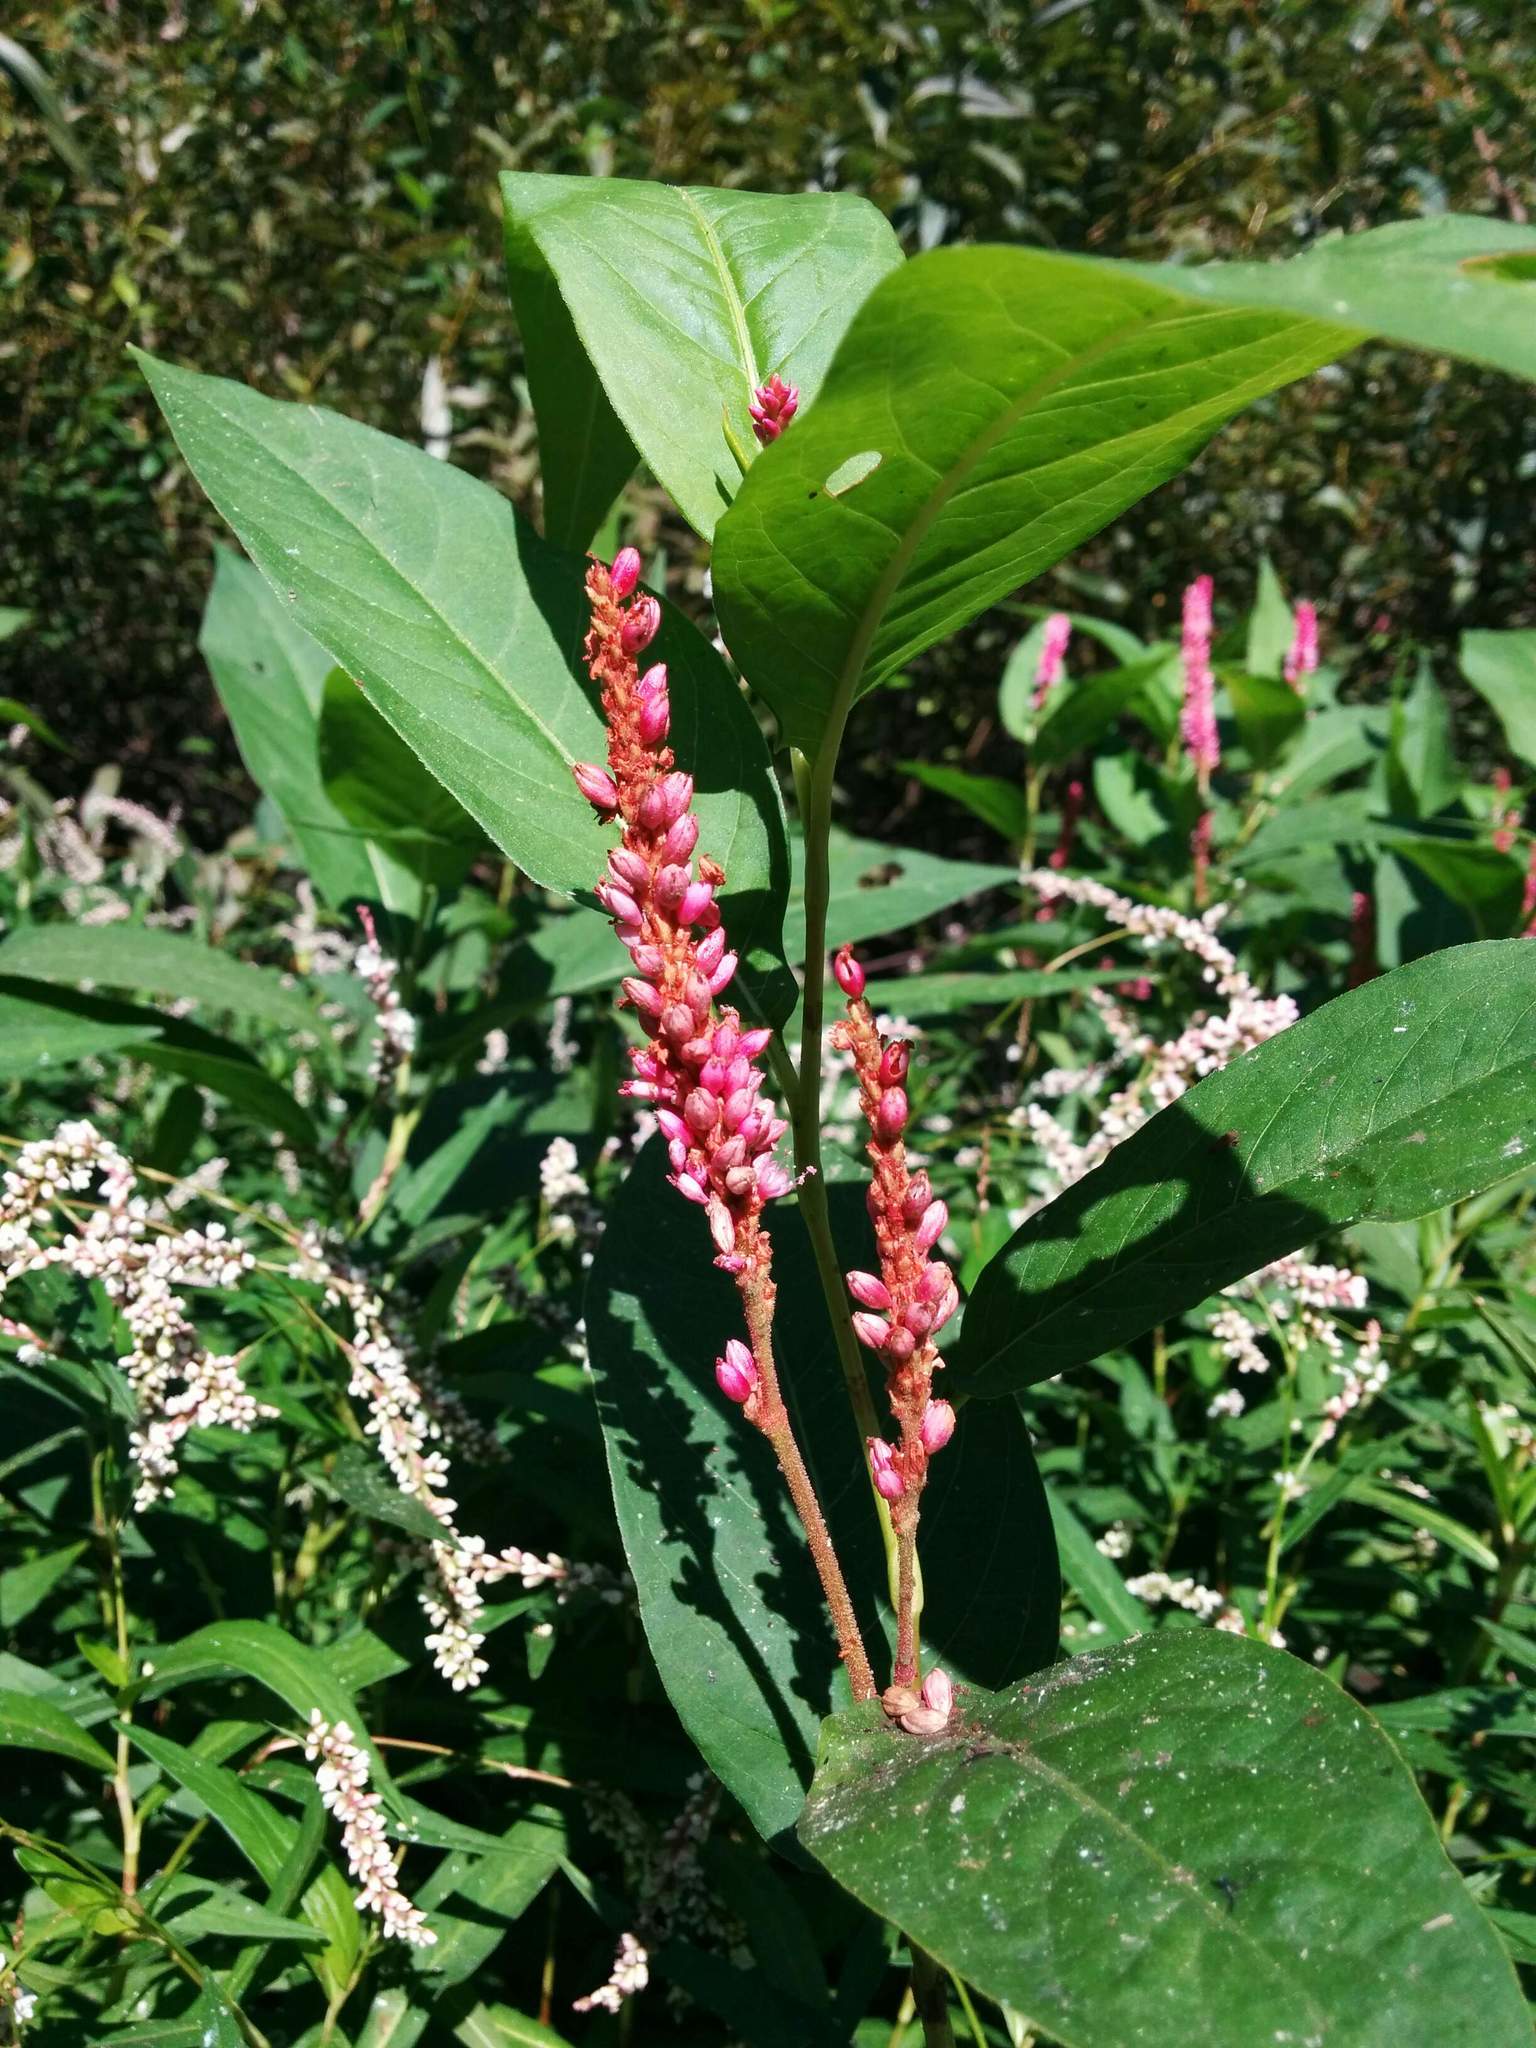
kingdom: Plantae
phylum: Tracheophyta
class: Magnoliopsida
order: Caryophyllales
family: Polygonaceae
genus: Persicaria
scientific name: Persicaria amphibia
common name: Amphibious bistort
